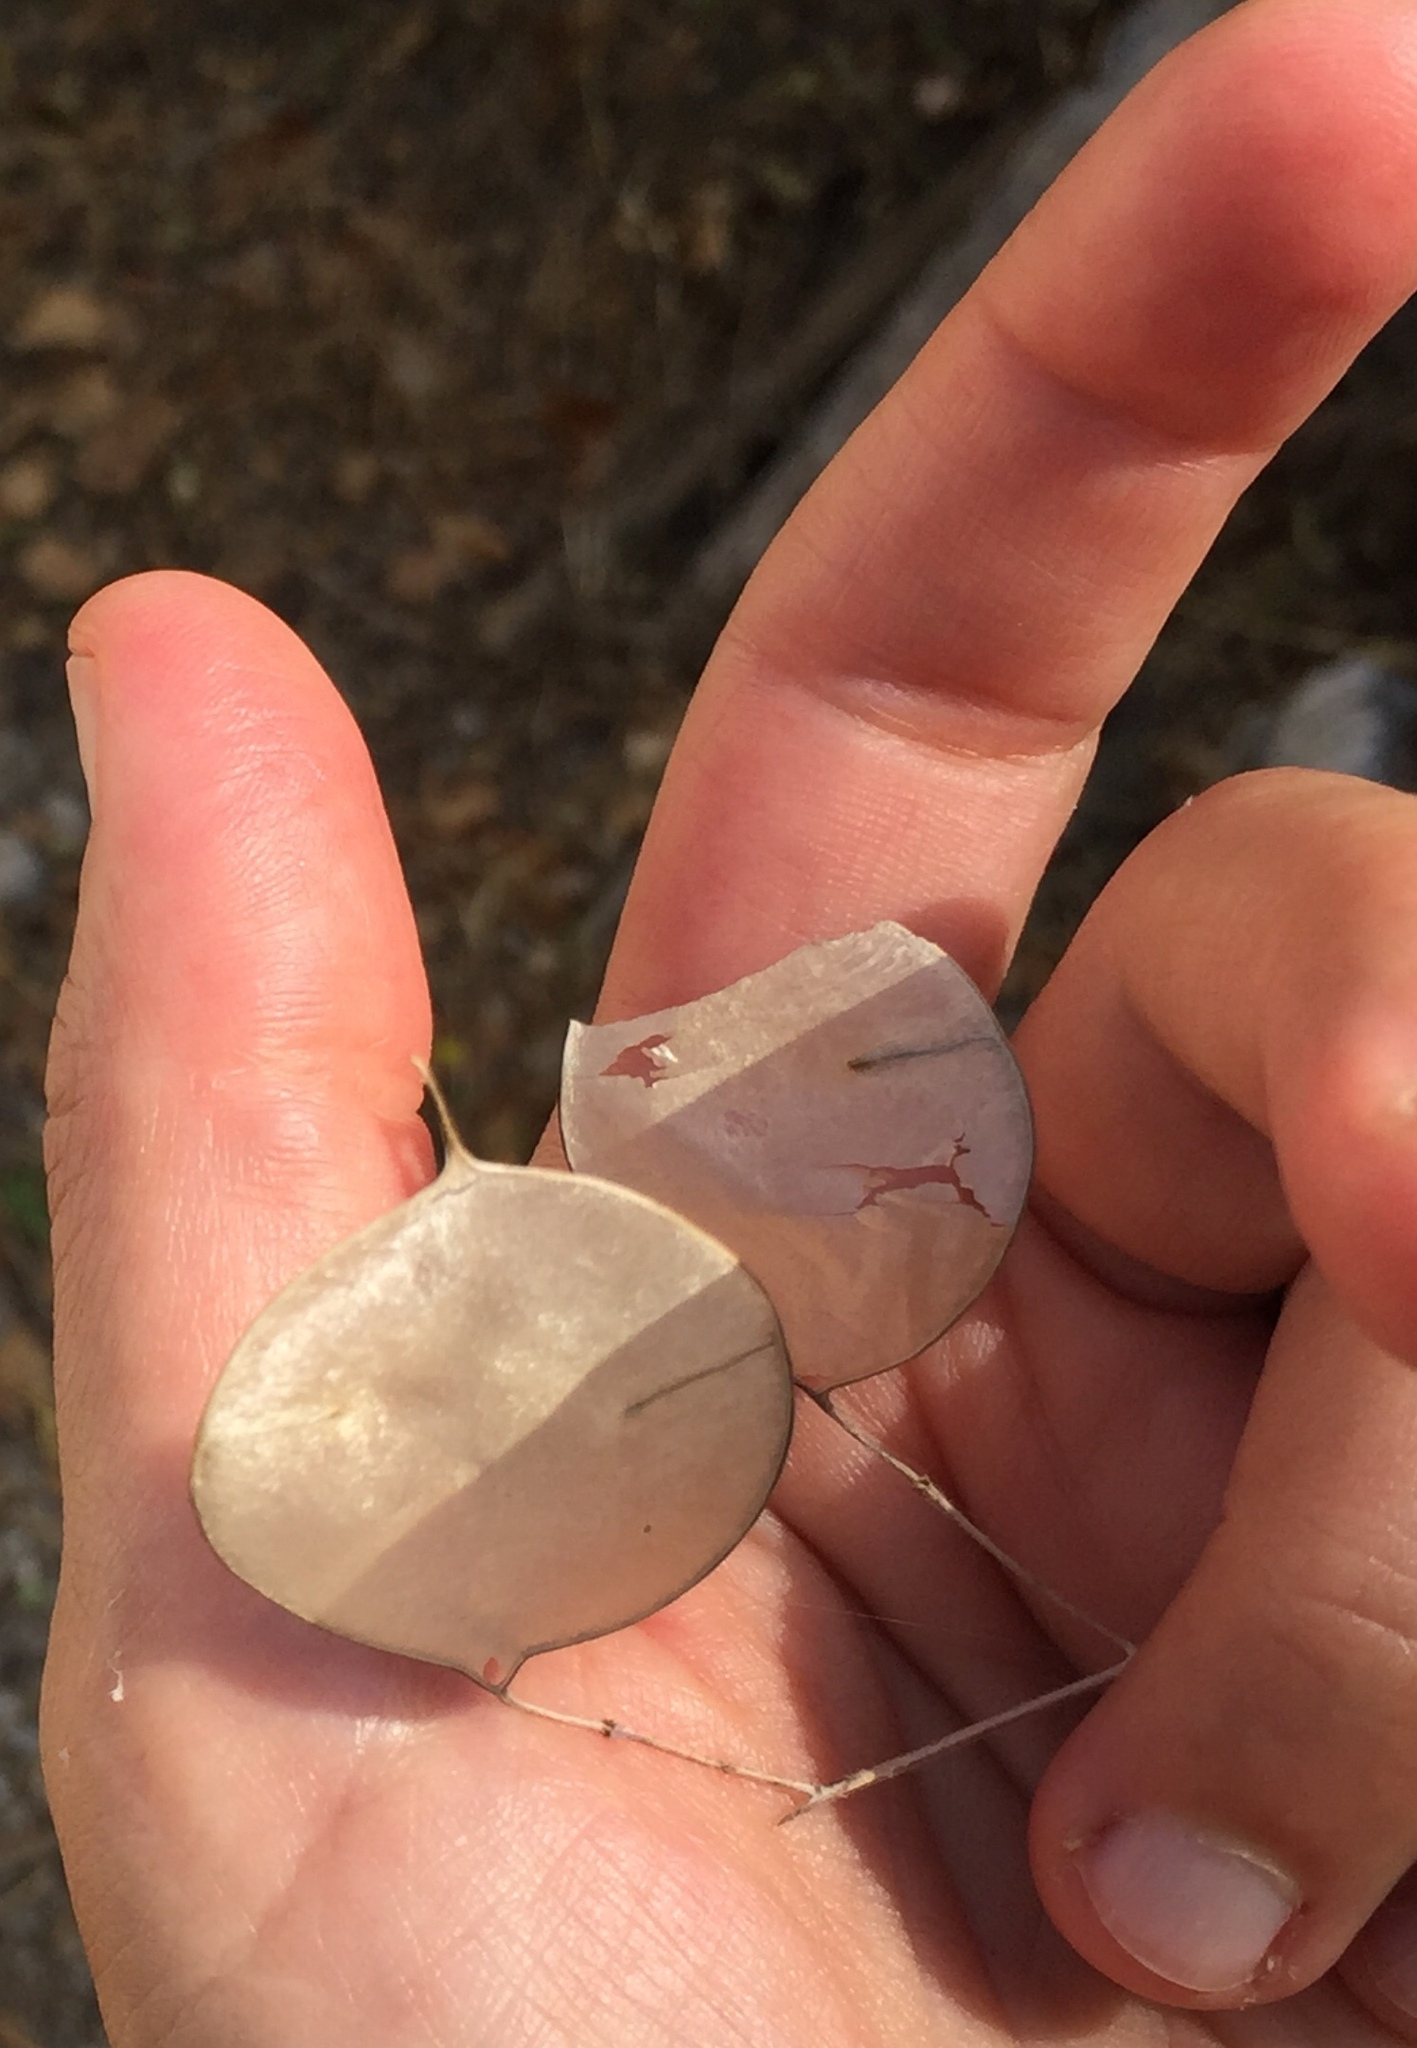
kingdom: Plantae
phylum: Tracheophyta
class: Magnoliopsida
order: Brassicales
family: Brassicaceae
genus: Lunaria
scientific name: Lunaria annua
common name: Honesty
